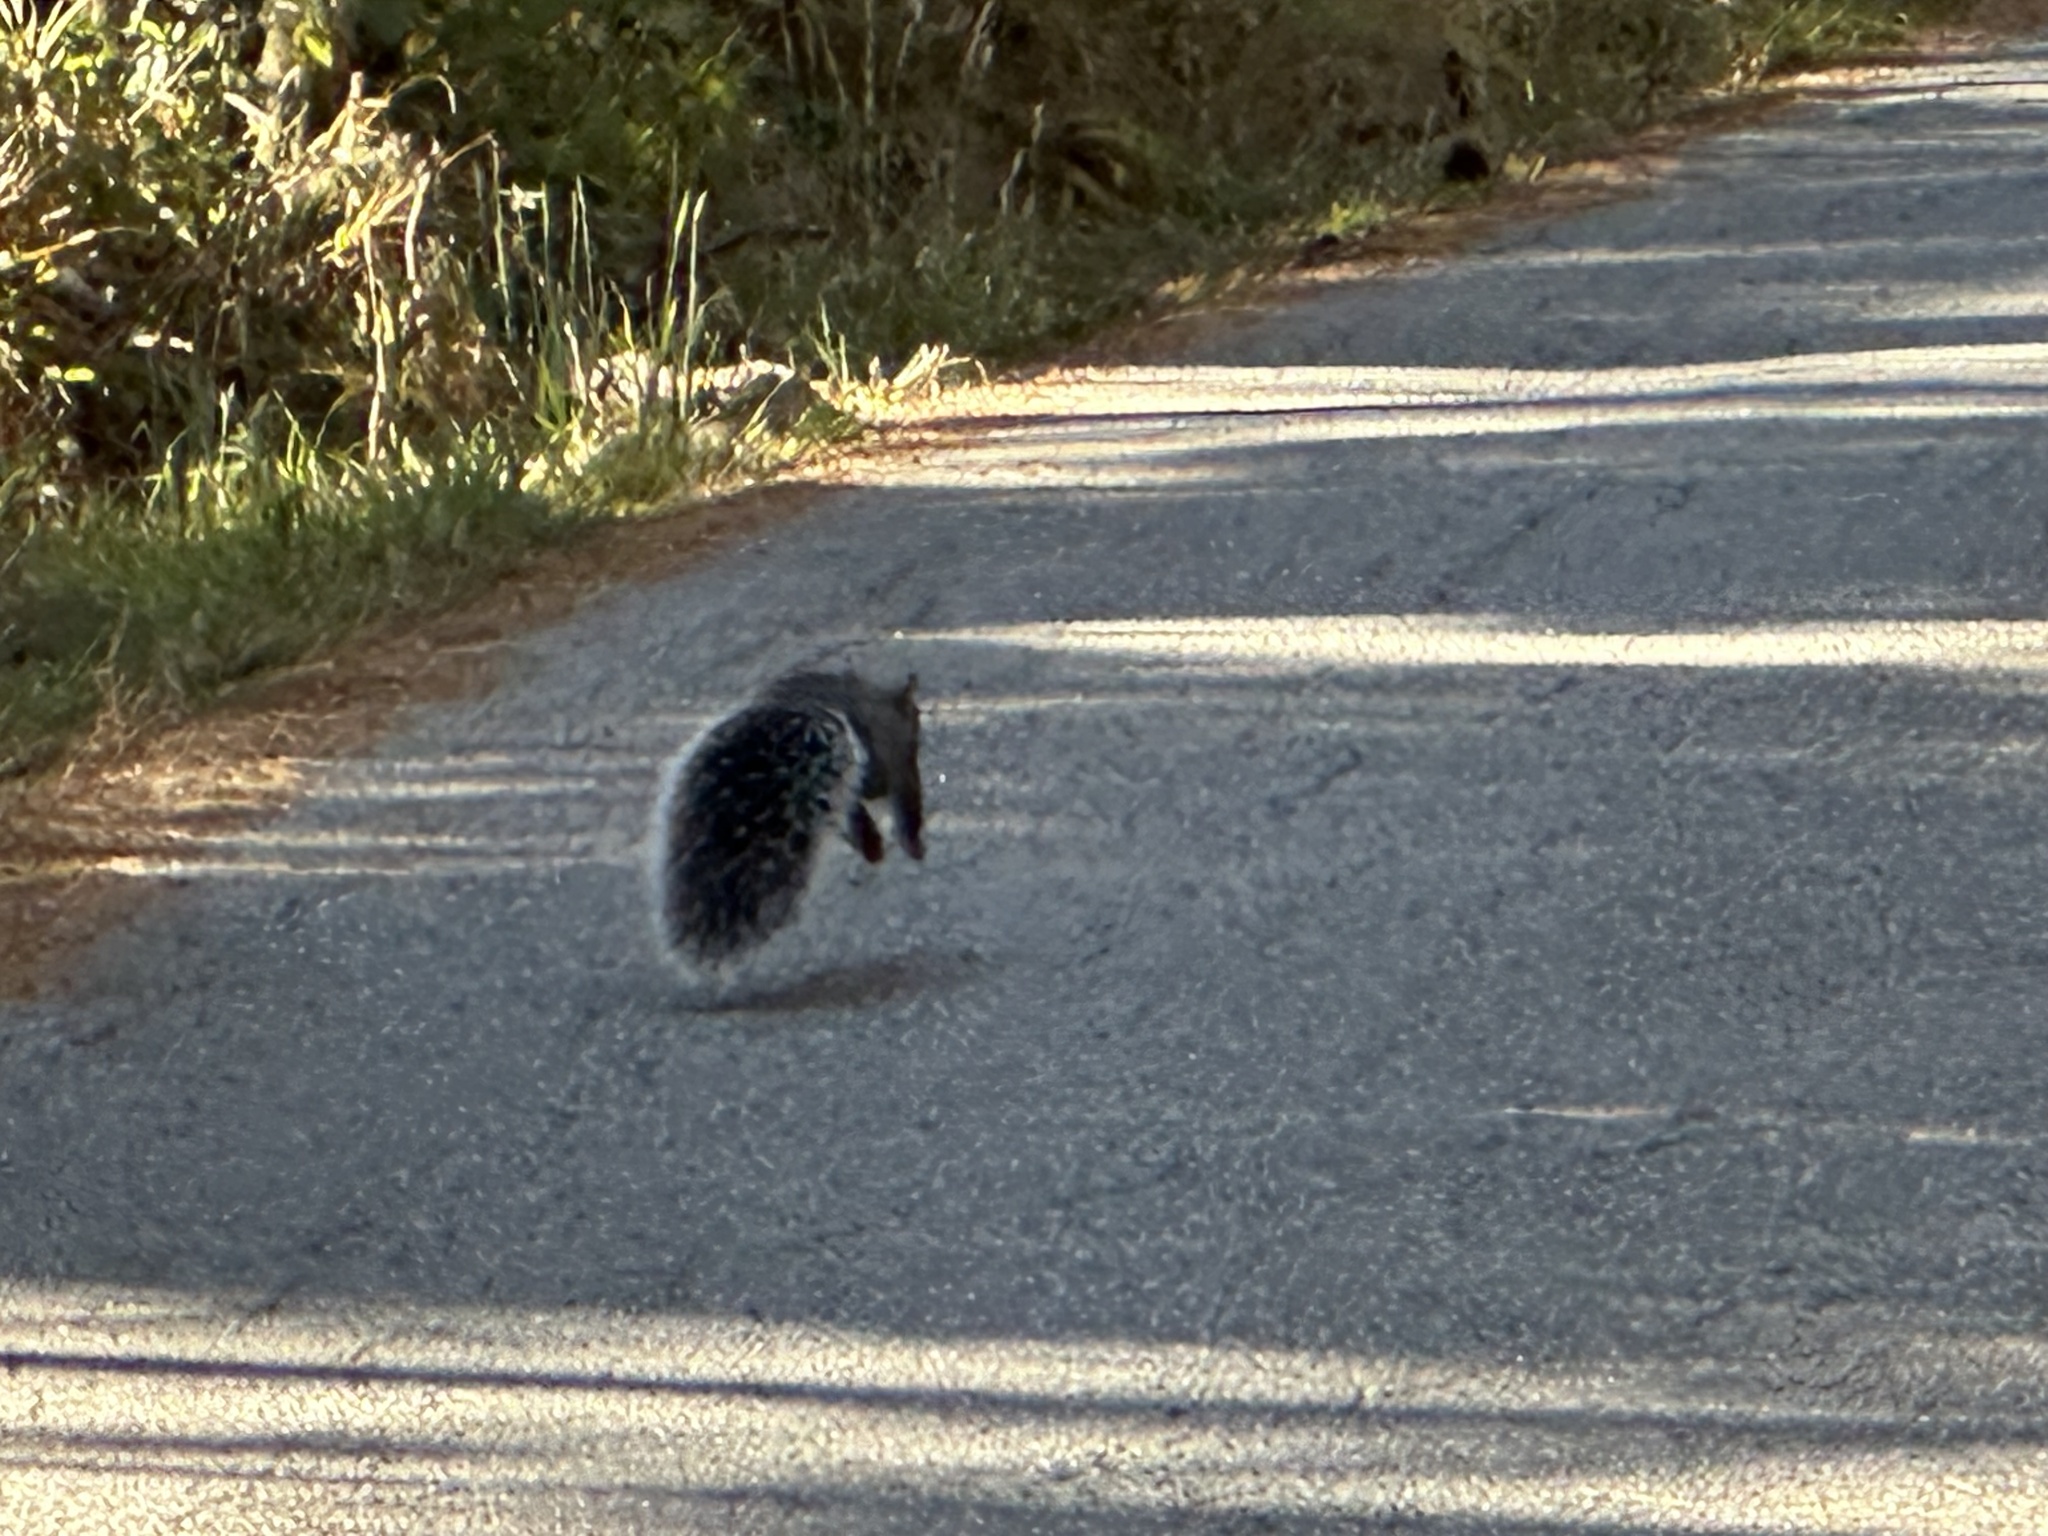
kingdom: Animalia
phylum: Chordata
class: Mammalia
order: Rodentia
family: Sciuridae
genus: Sciurus
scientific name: Sciurus griseus
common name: Western gray squirrel
